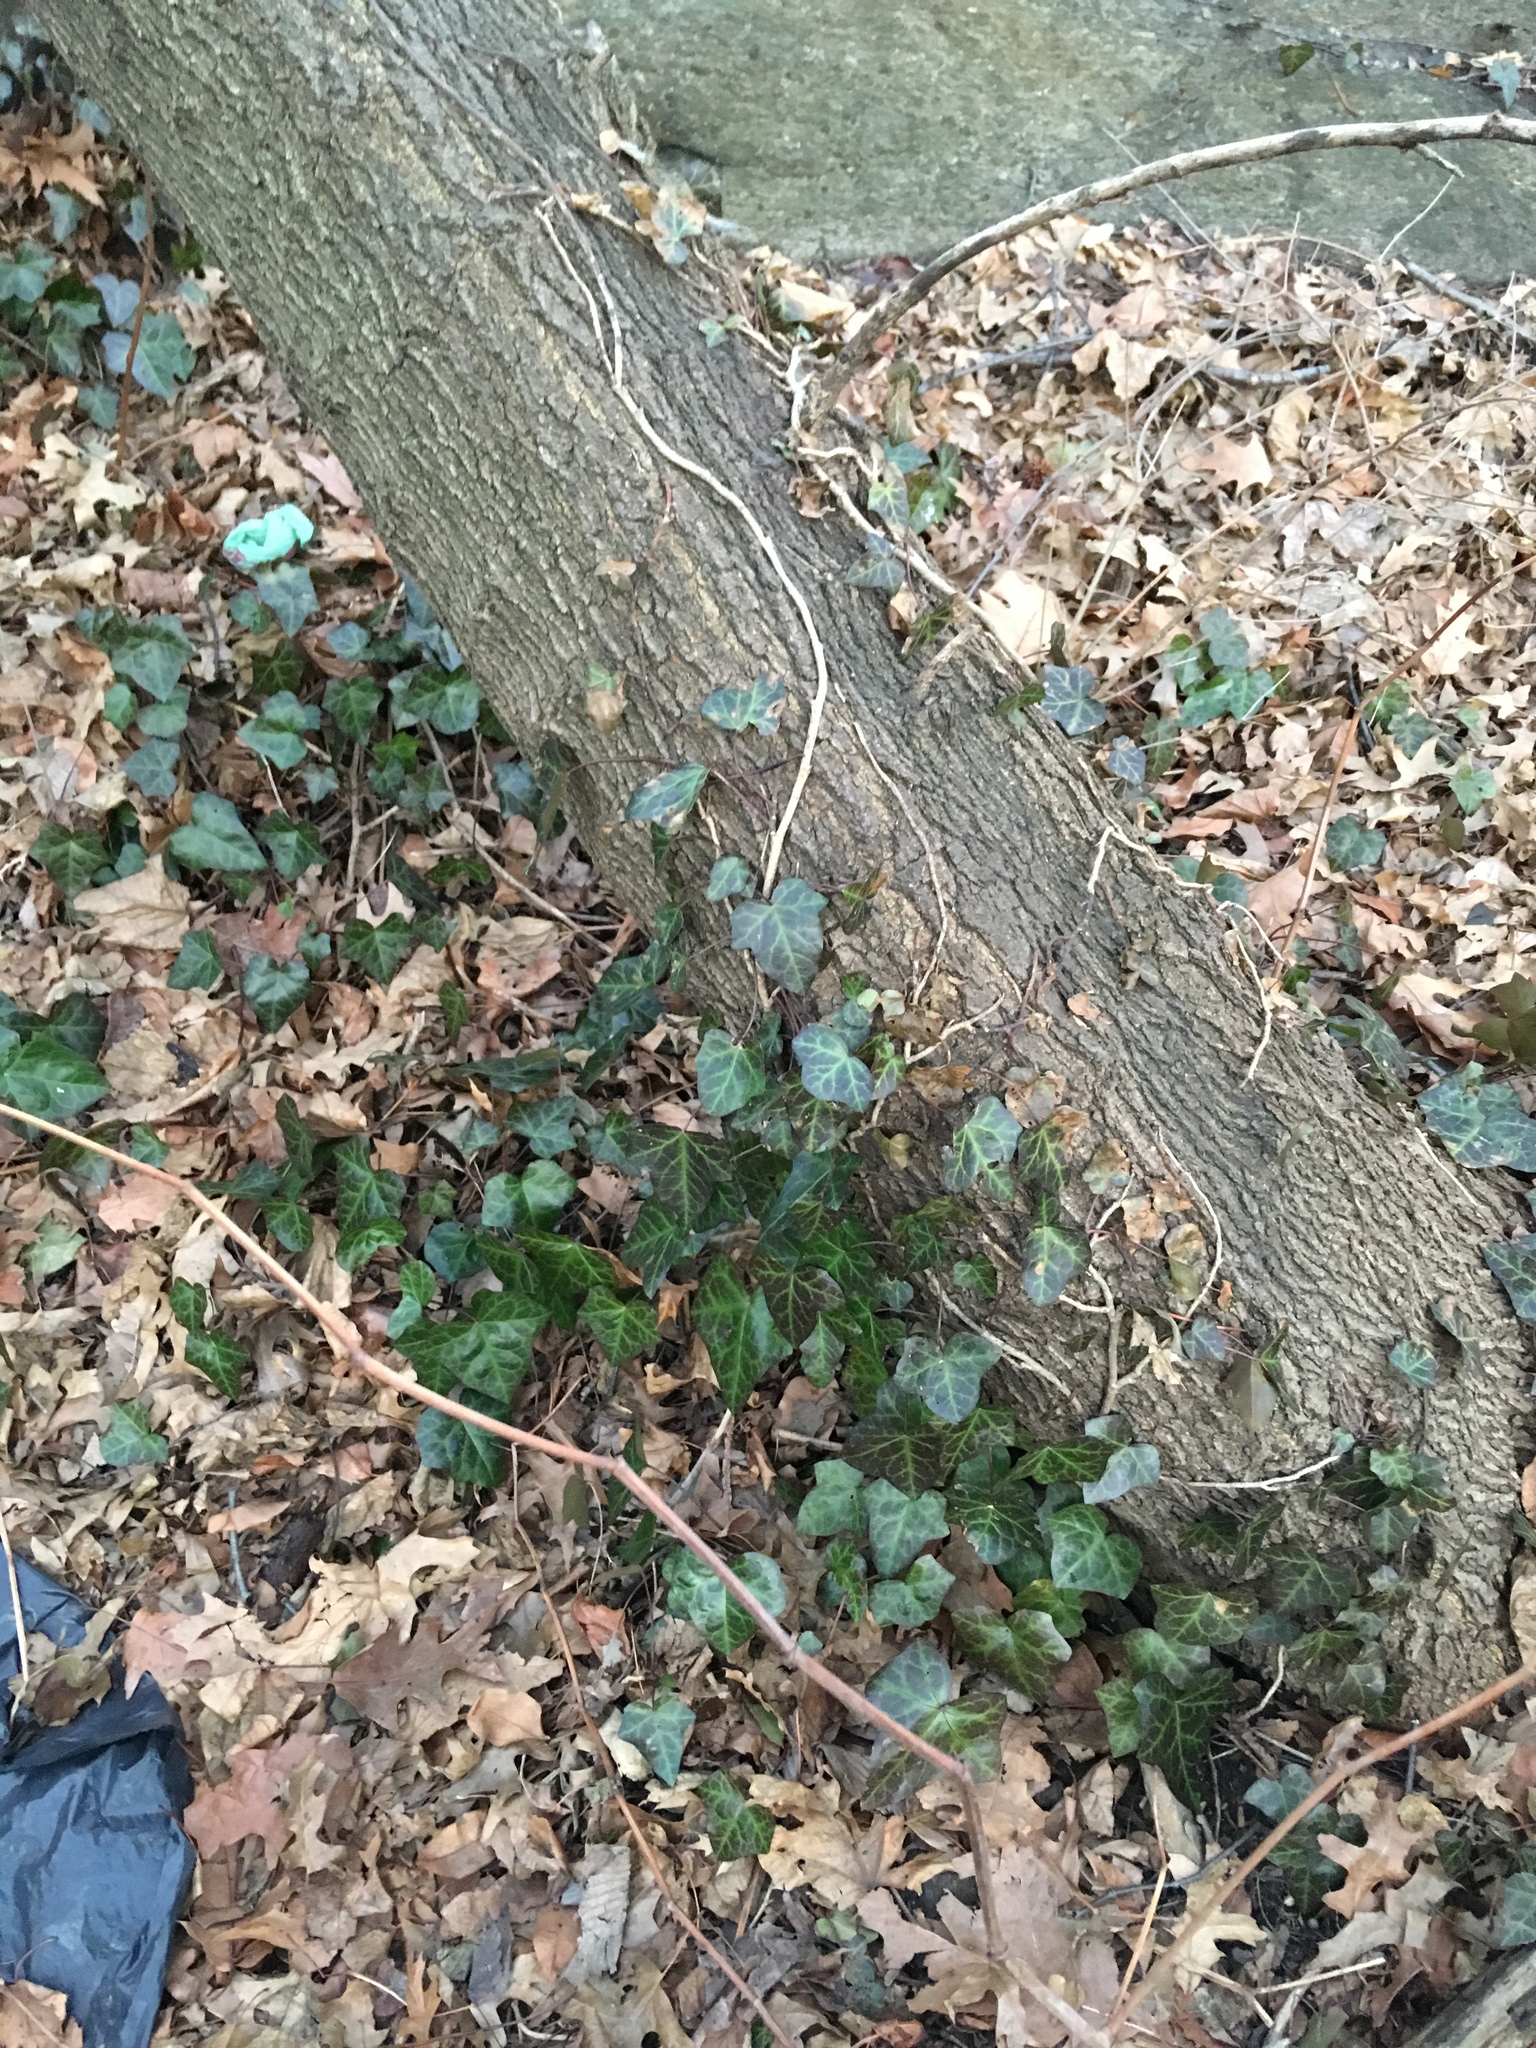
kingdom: Plantae
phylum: Tracheophyta
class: Magnoliopsida
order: Apiales
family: Araliaceae
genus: Hedera
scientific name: Hedera helix
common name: Ivy
